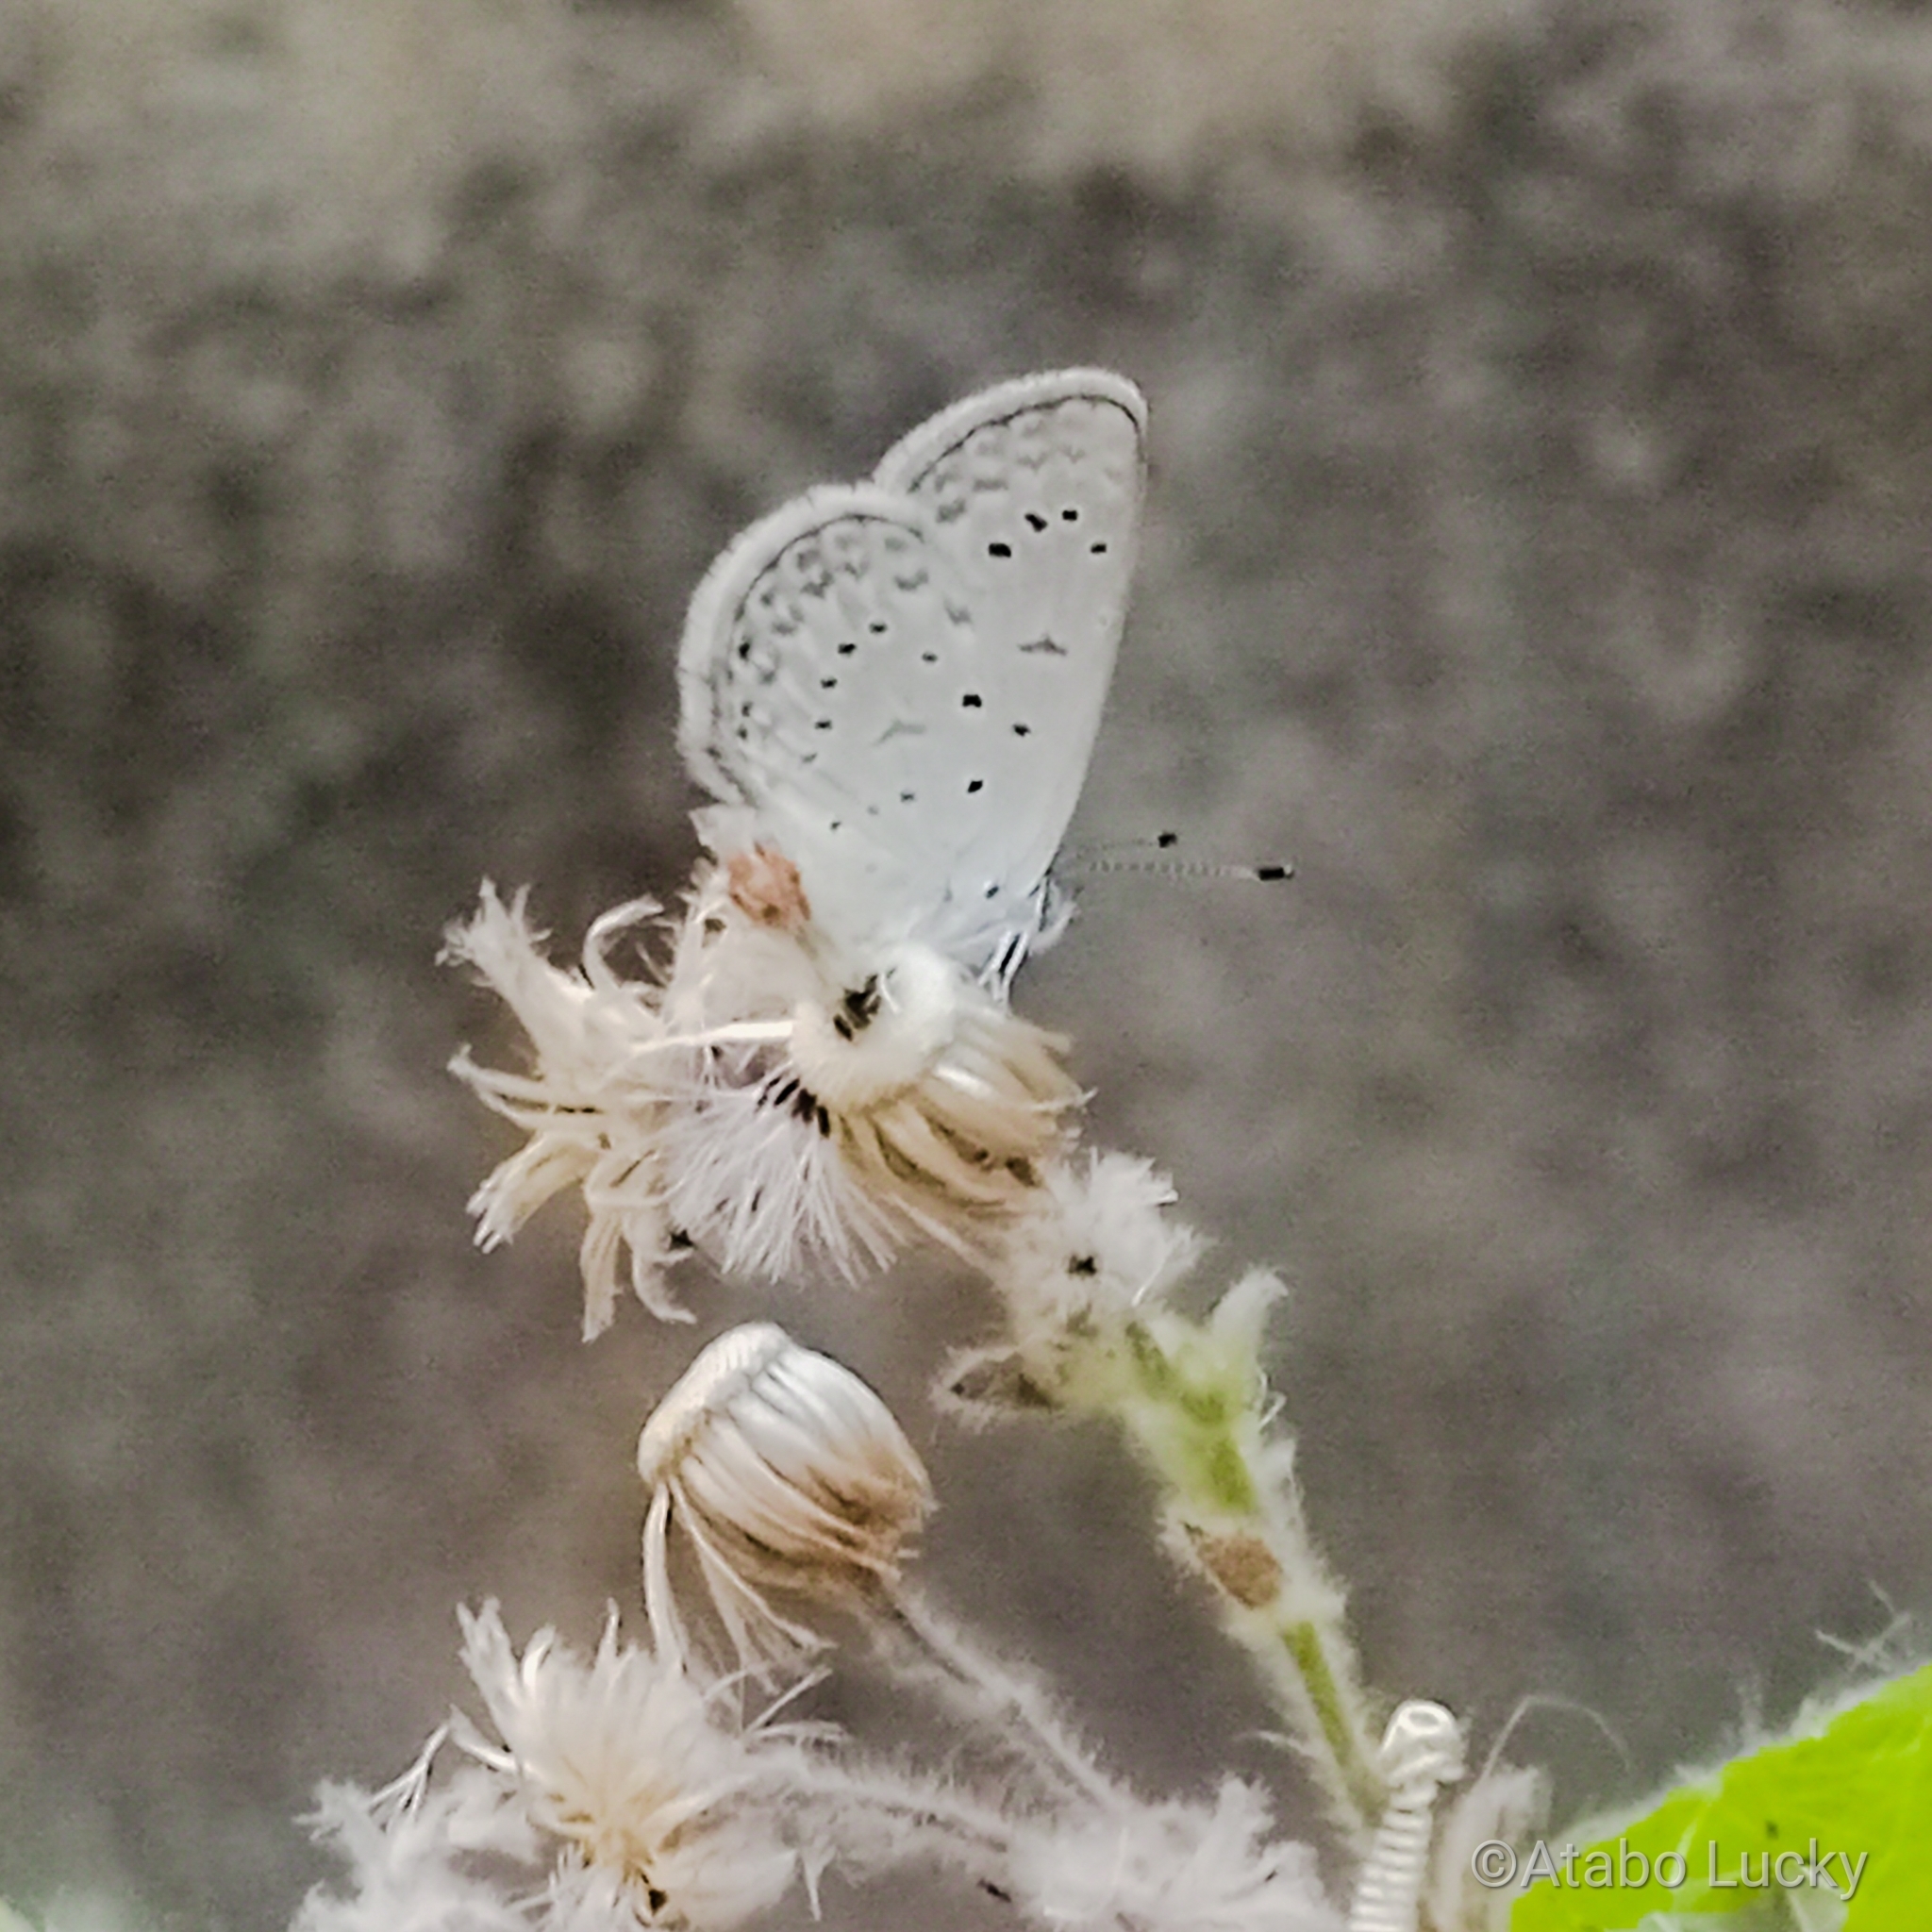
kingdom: Animalia
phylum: Arthropoda
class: Insecta
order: Lepidoptera
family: Lycaenidae
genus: Zizeeria
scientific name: Zizeeria knysna
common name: African grass blue
